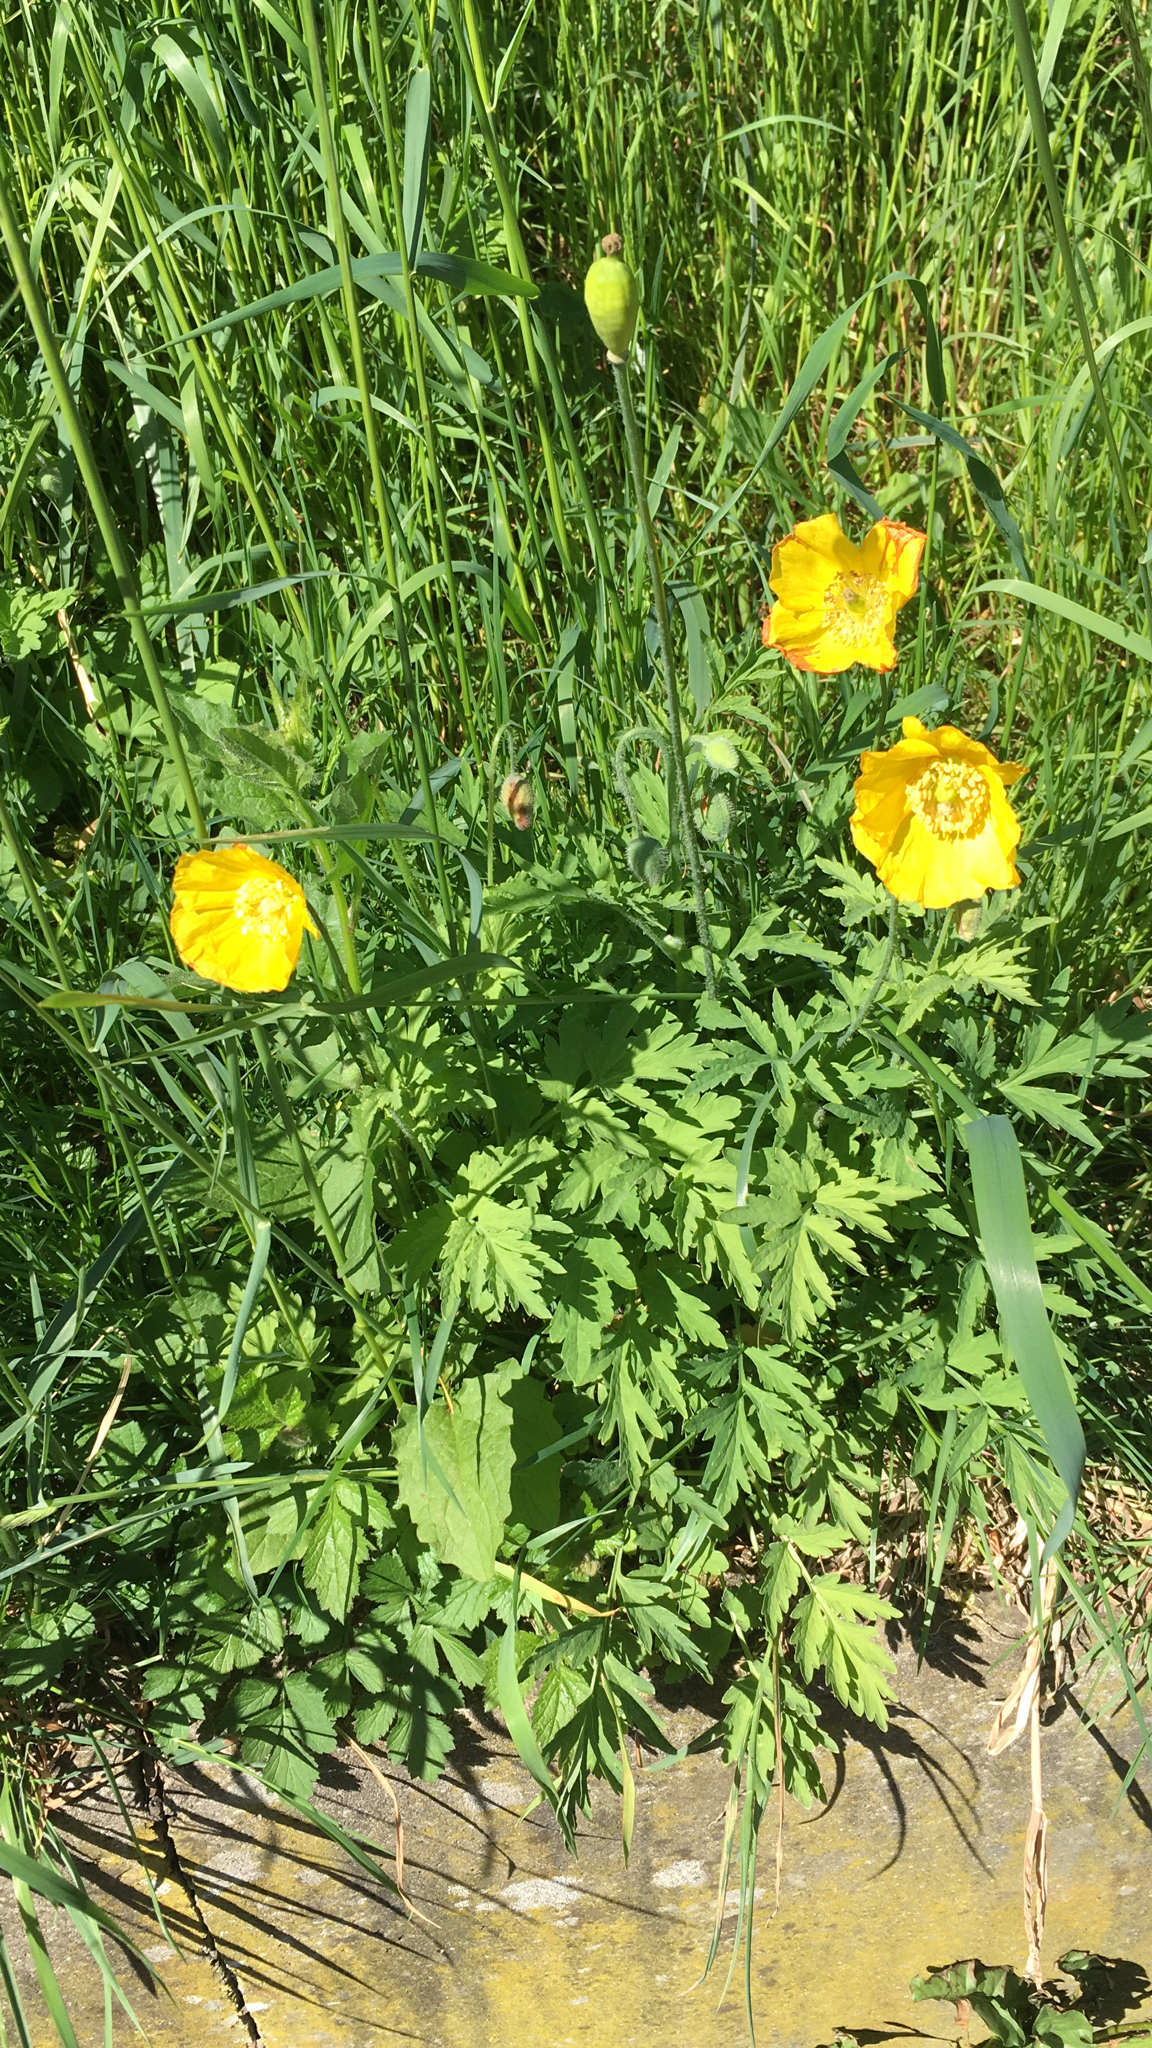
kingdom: Plantae
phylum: Tracheophyta
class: Magnoliopsida
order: Ranunculales
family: Papaveraceae
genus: Papaver
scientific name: Papaver cambricum
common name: Poppy
